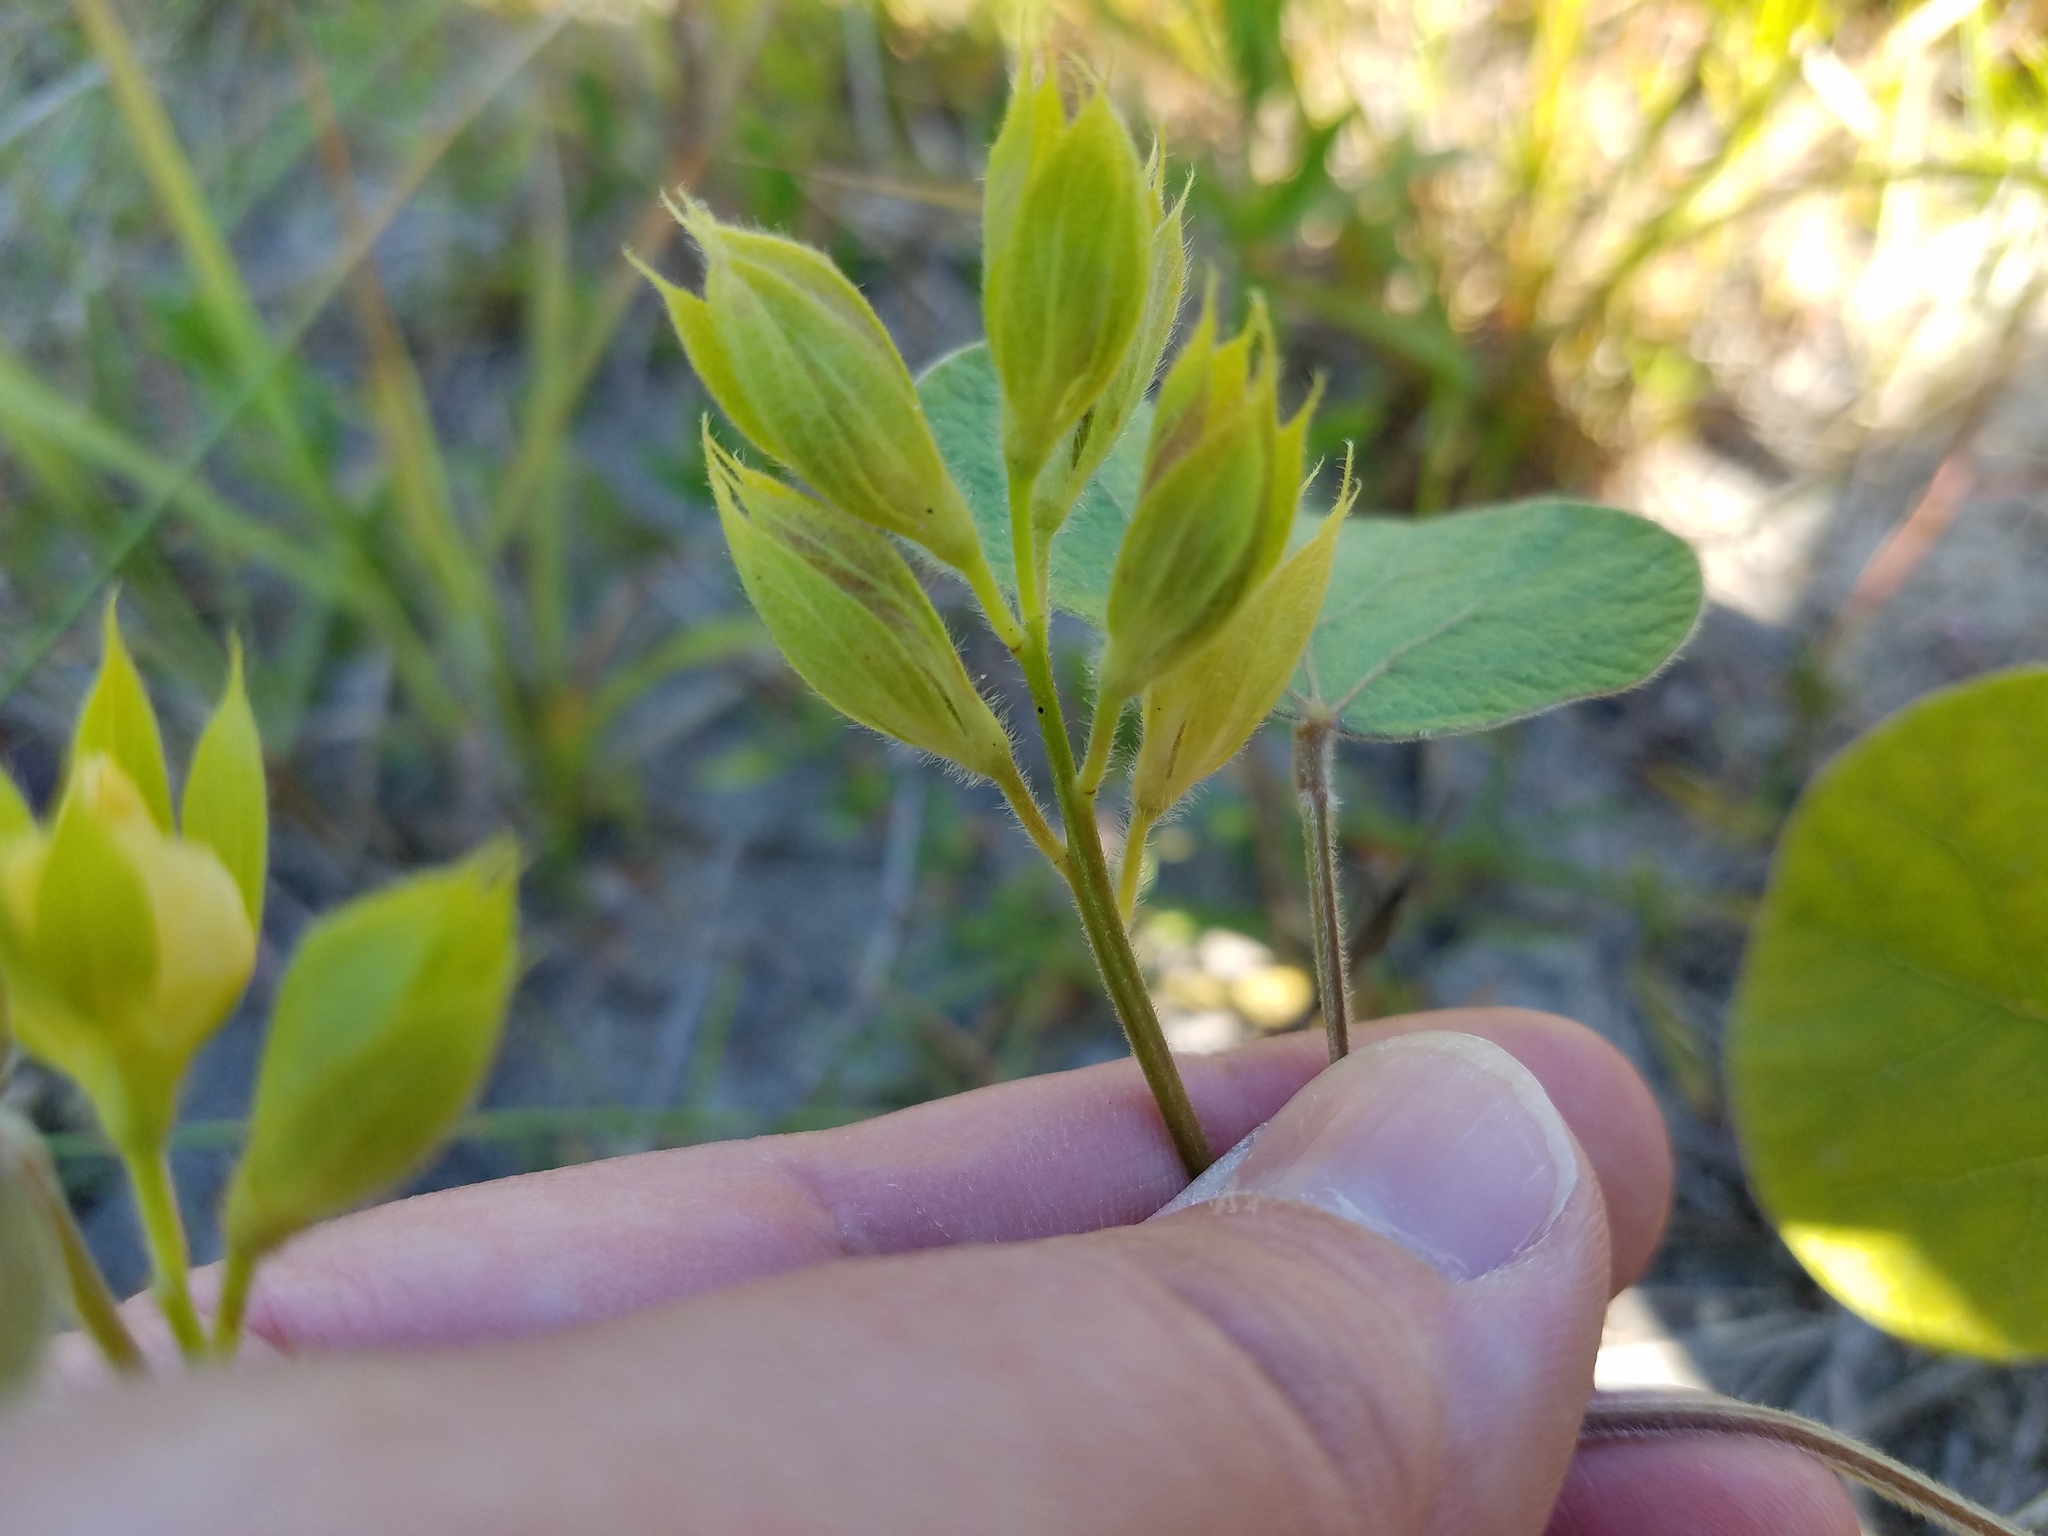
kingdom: Plantae
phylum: Tracheophyta
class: Magnoliopsida
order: Fabales
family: Fabaceae
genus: Rhynchosia
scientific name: Rhynchosia michauxii
